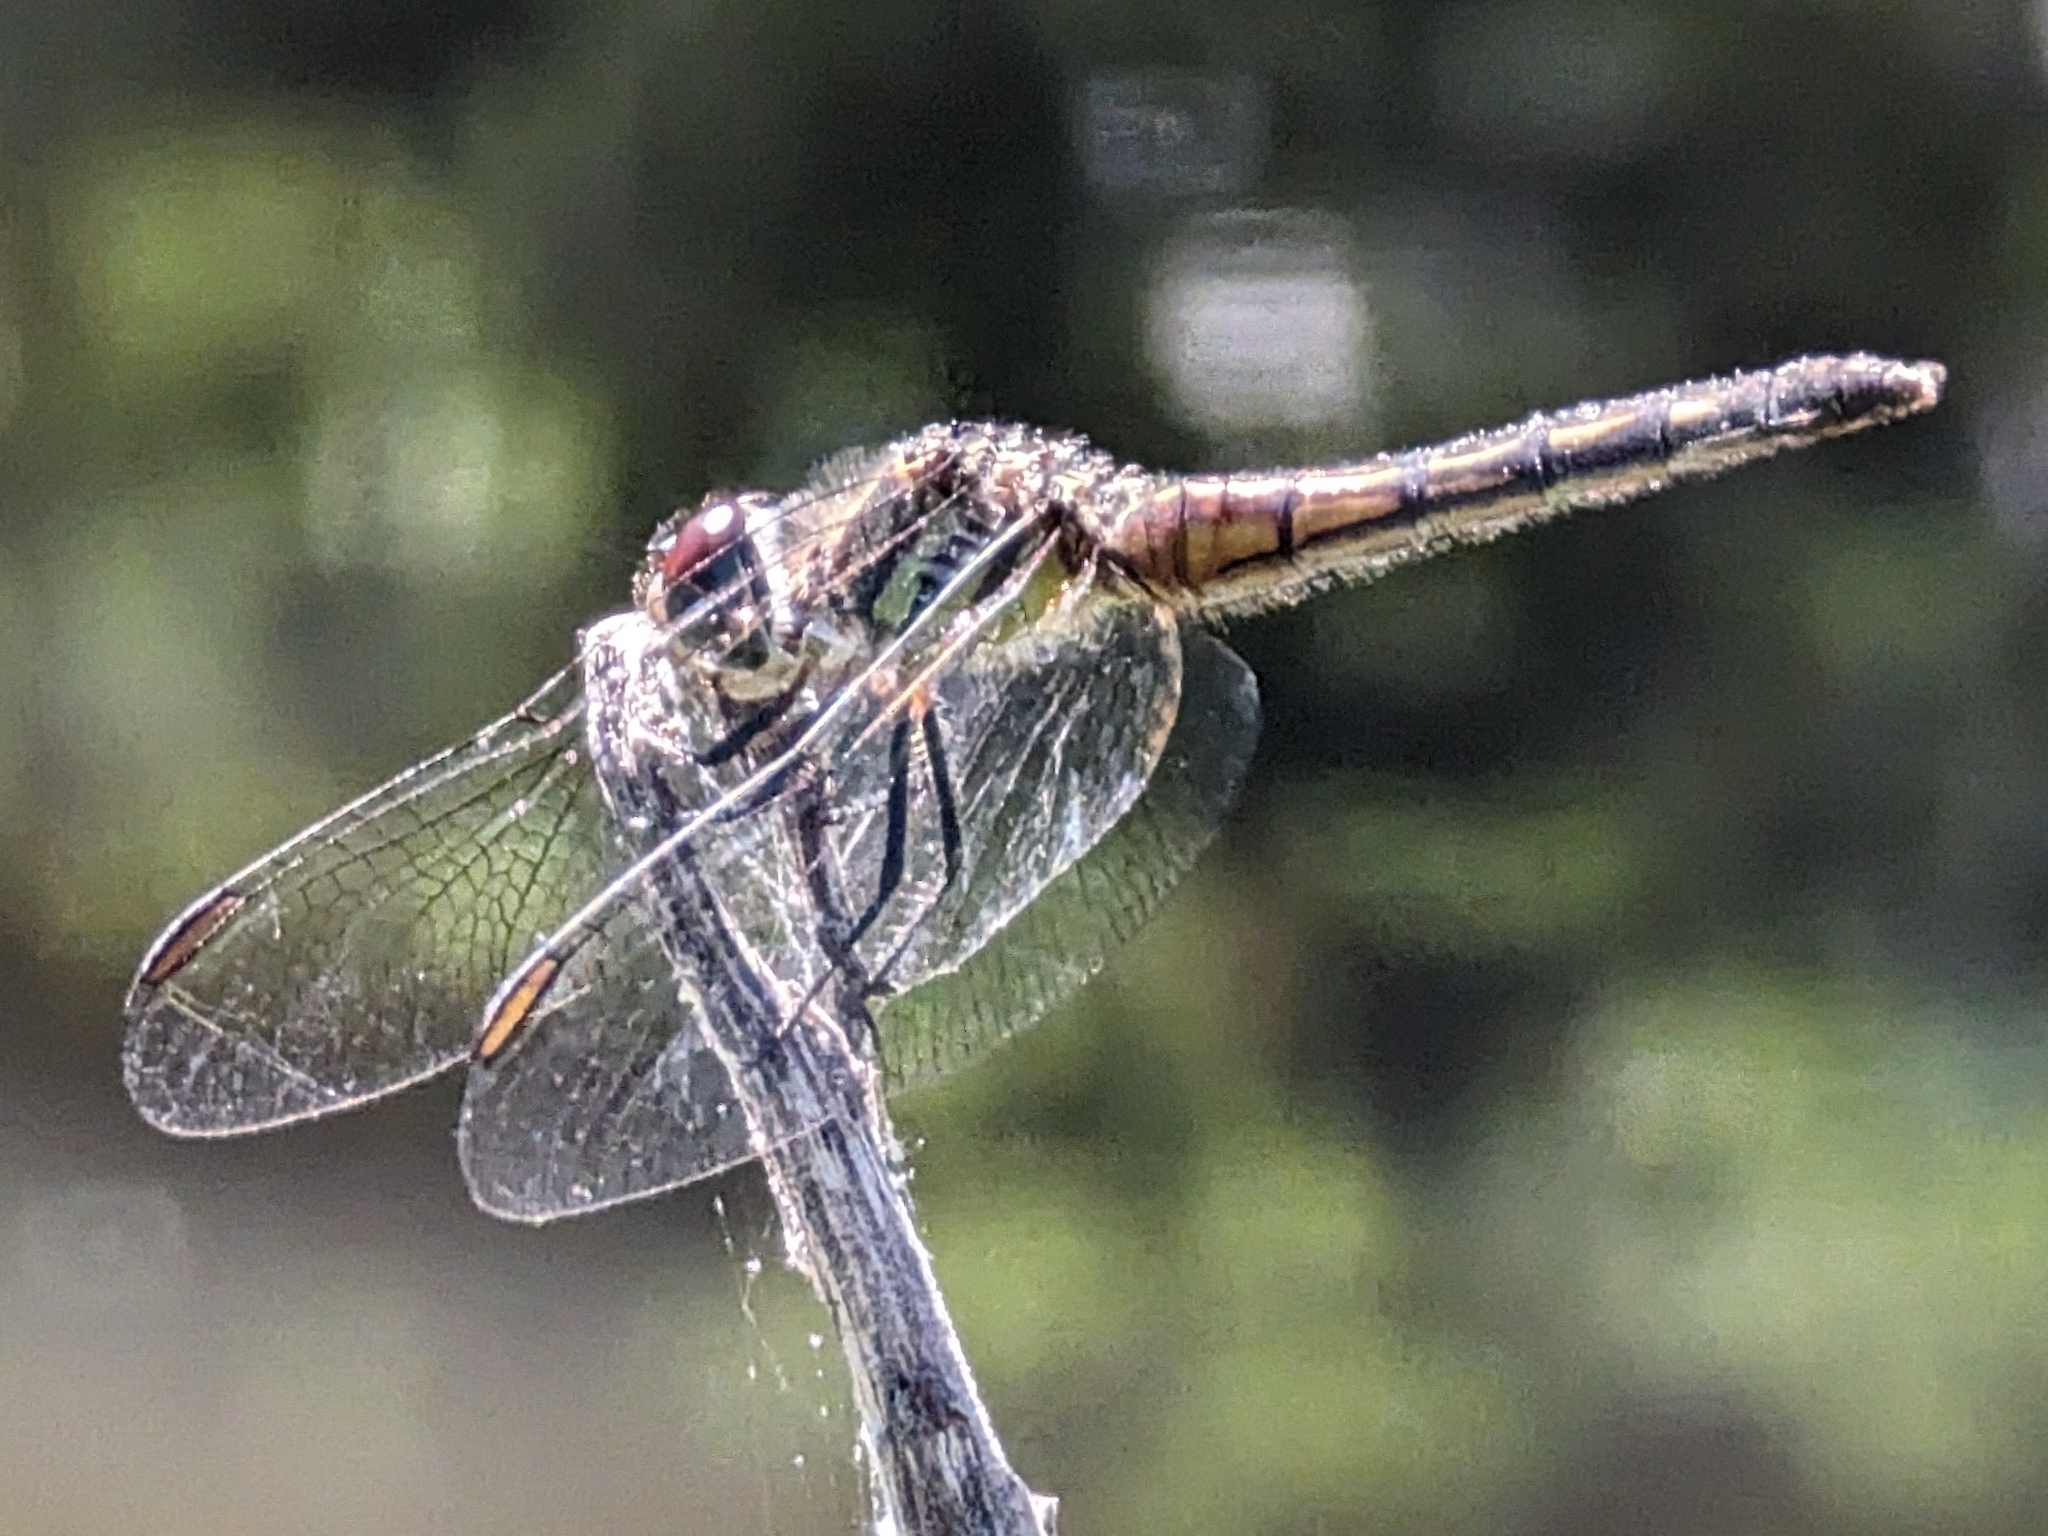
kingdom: Animalia
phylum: Arthropoda
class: Insecta
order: Odonata
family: Libellulidae
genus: Pachydiplax
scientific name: Pachydiplax longipennis
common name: Blue dasher
